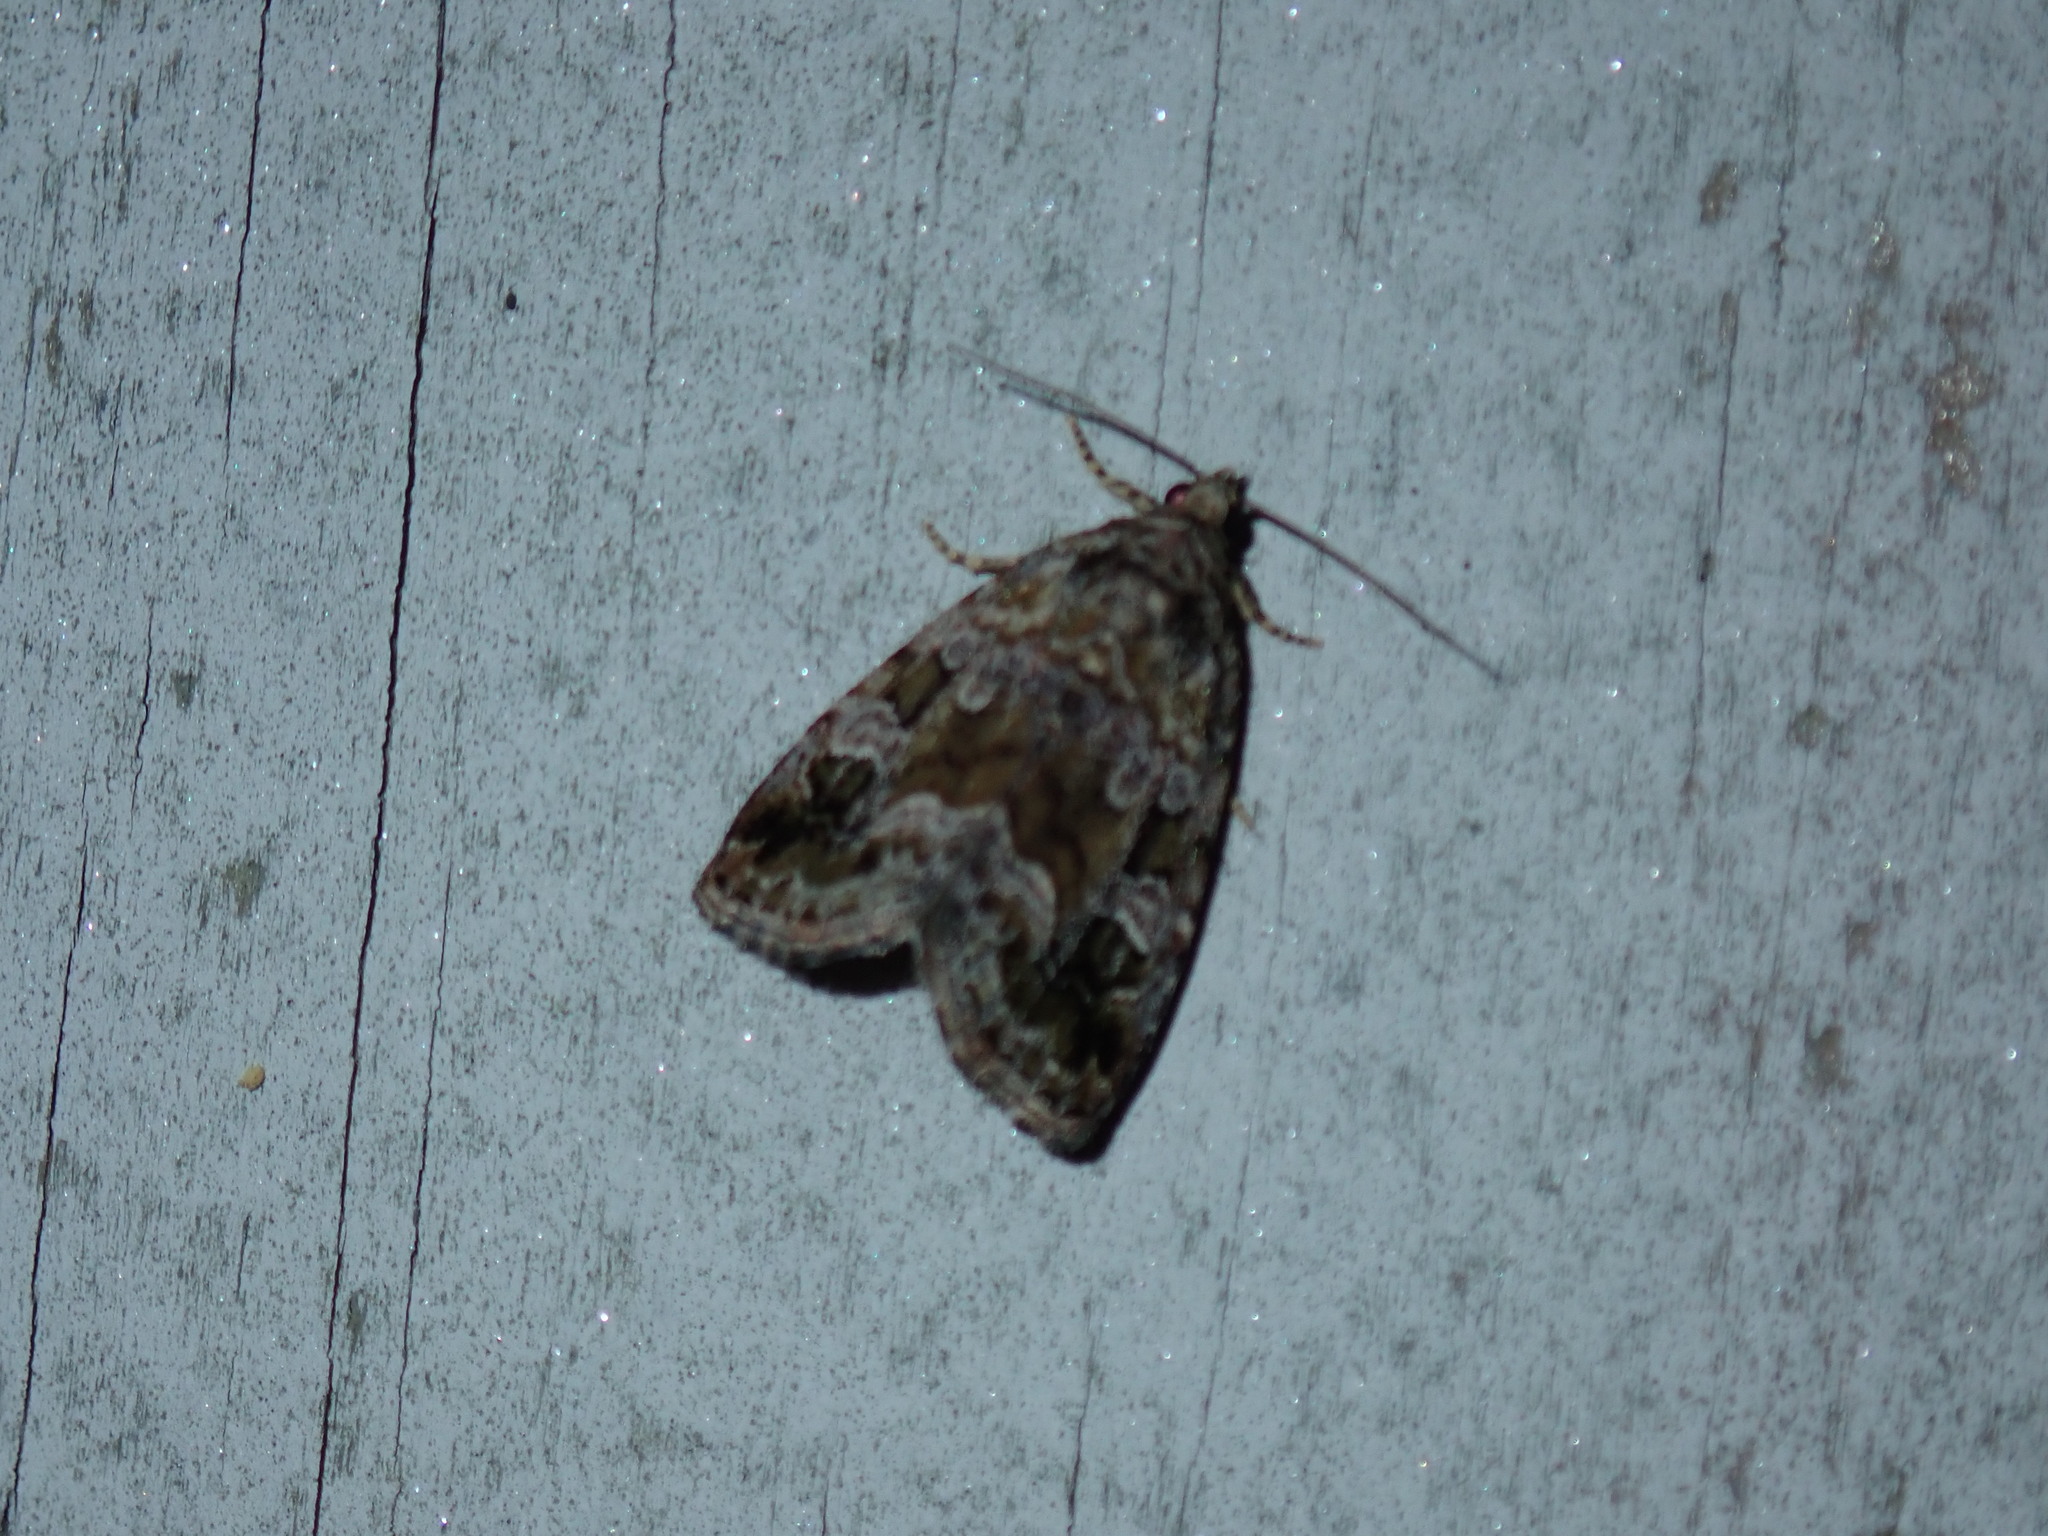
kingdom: Animalia
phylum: Arthropoda
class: Insecta
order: Lepidoptera
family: Noctuidae
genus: Protodeltote
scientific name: Protodeltote muscosula
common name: Large mossy glyph
